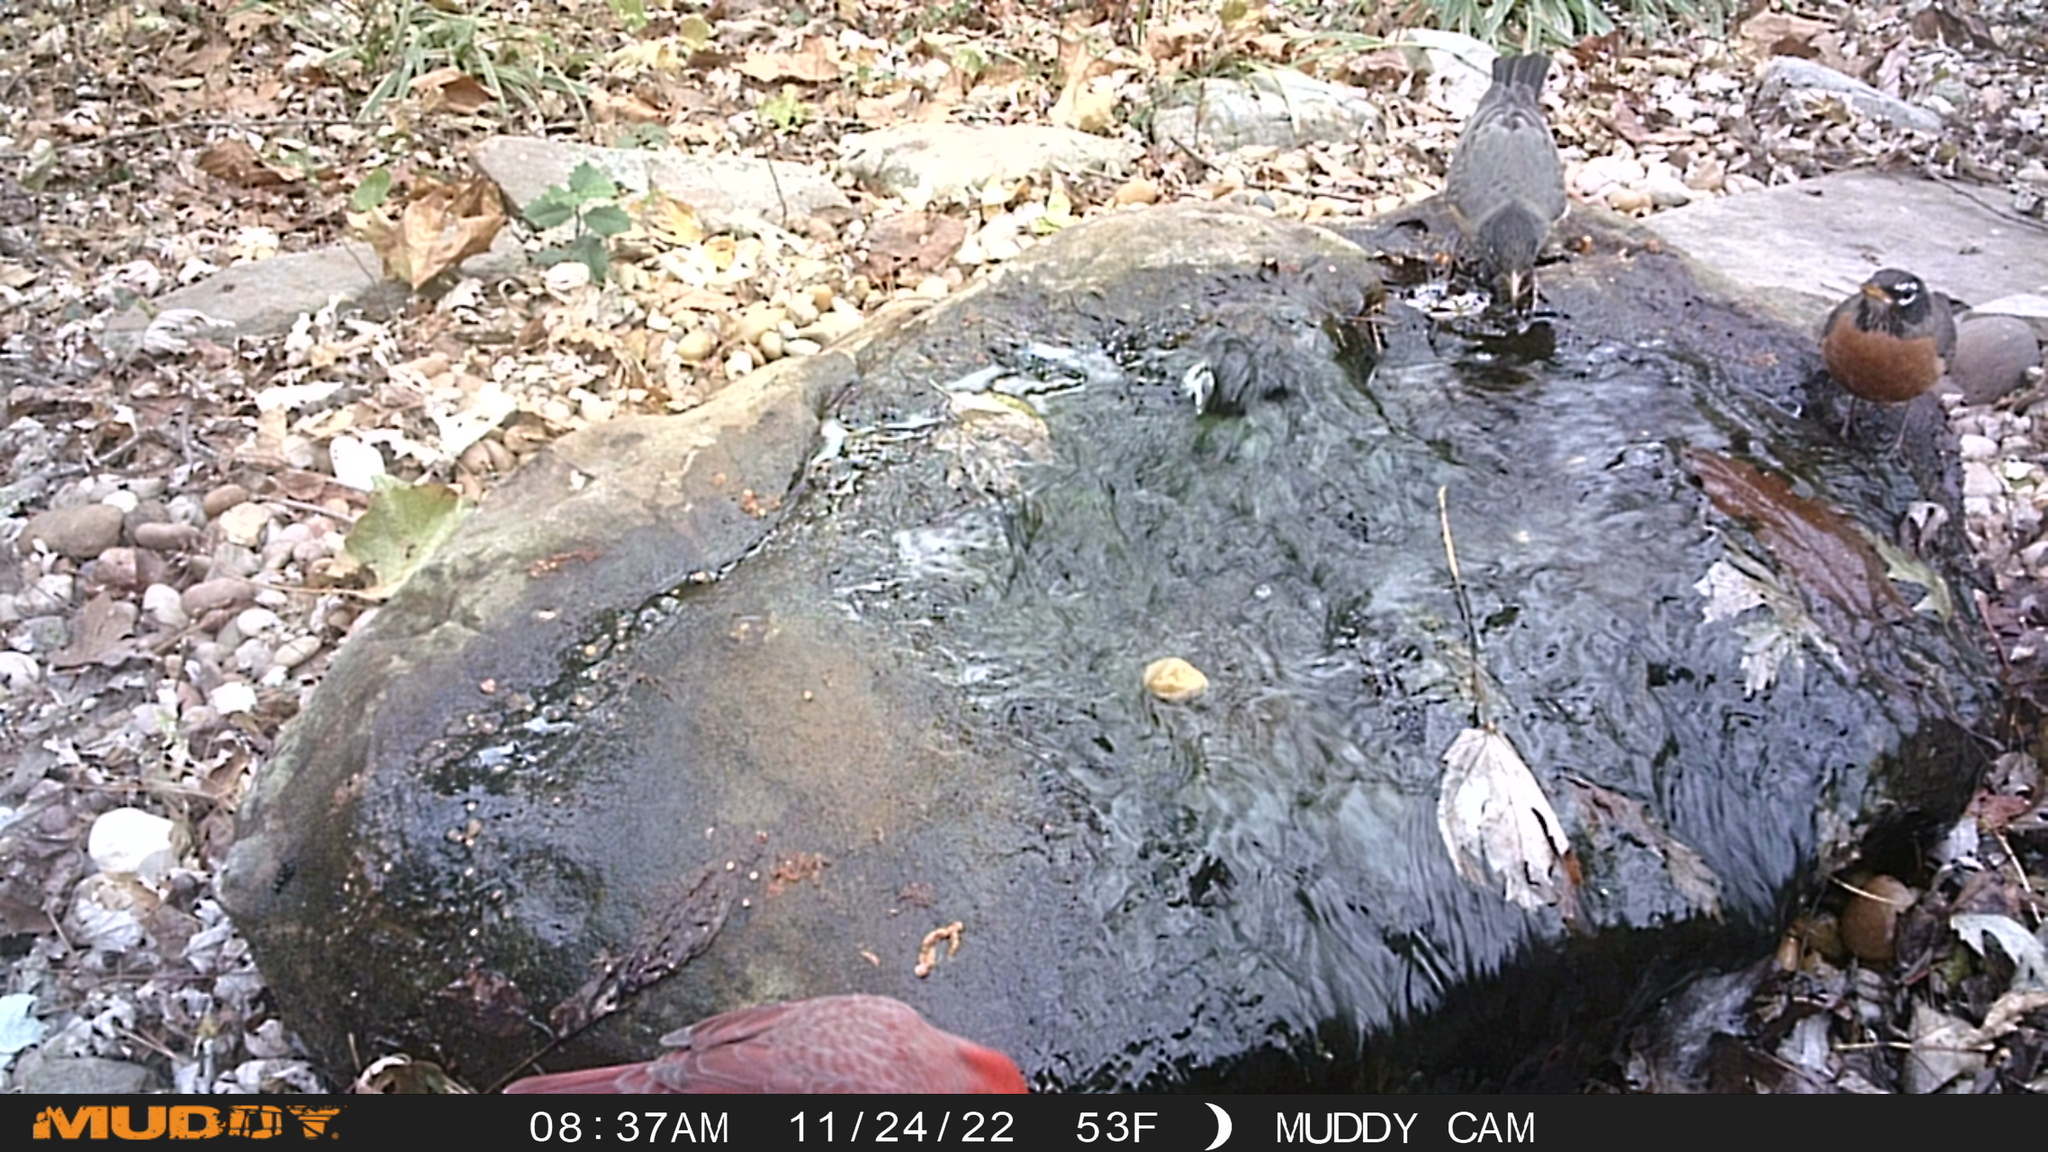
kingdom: Animalia
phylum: Chordata
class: Aves
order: Passeriformes
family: Cardinalidae
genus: Cardinalis
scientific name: Cardinalis cardinalis
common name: Northern cardinal
